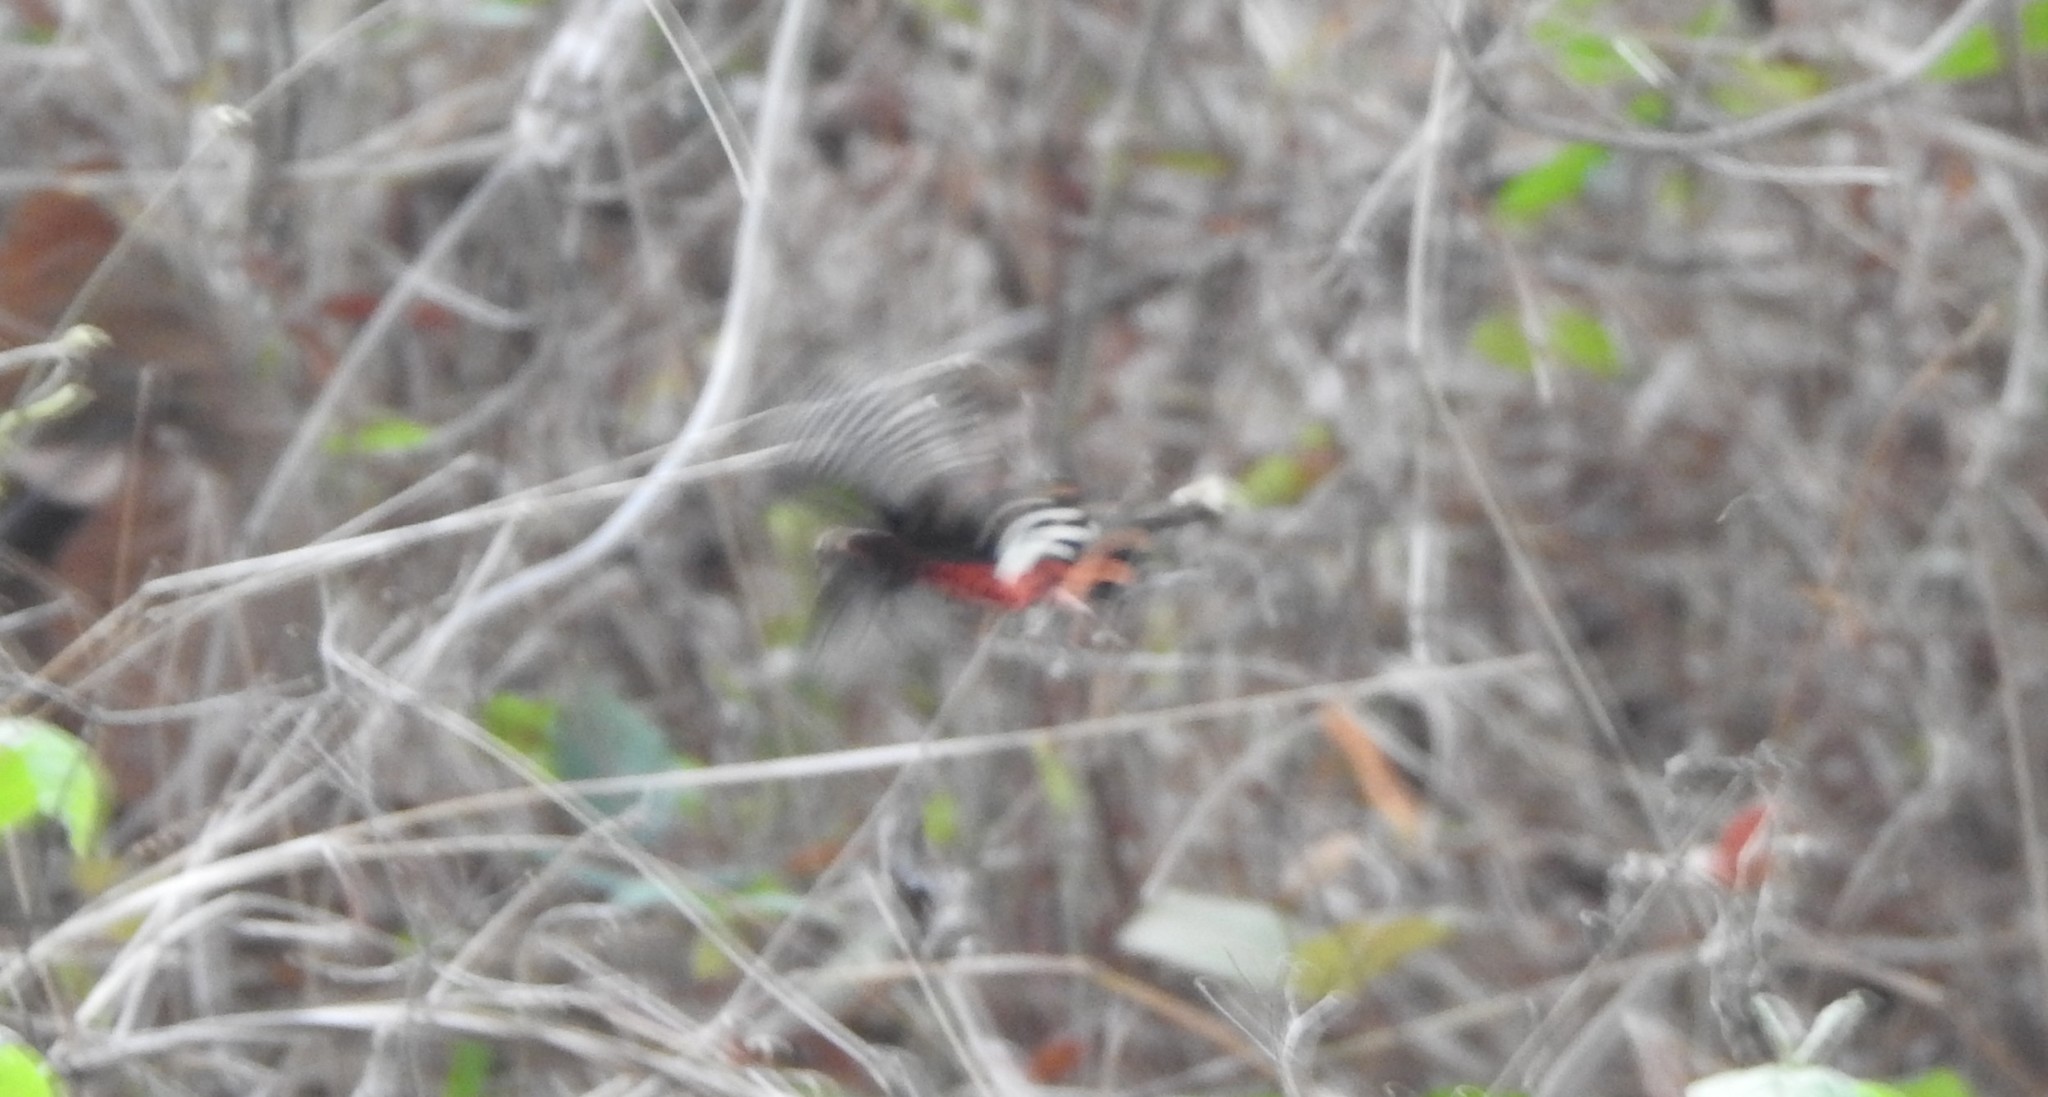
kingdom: Animalia
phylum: Arthropoda
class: Insecta
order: Lepidoptera
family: Papilionidae
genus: Pachliopta
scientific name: Pachliopta aristolochiae
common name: Common rose
